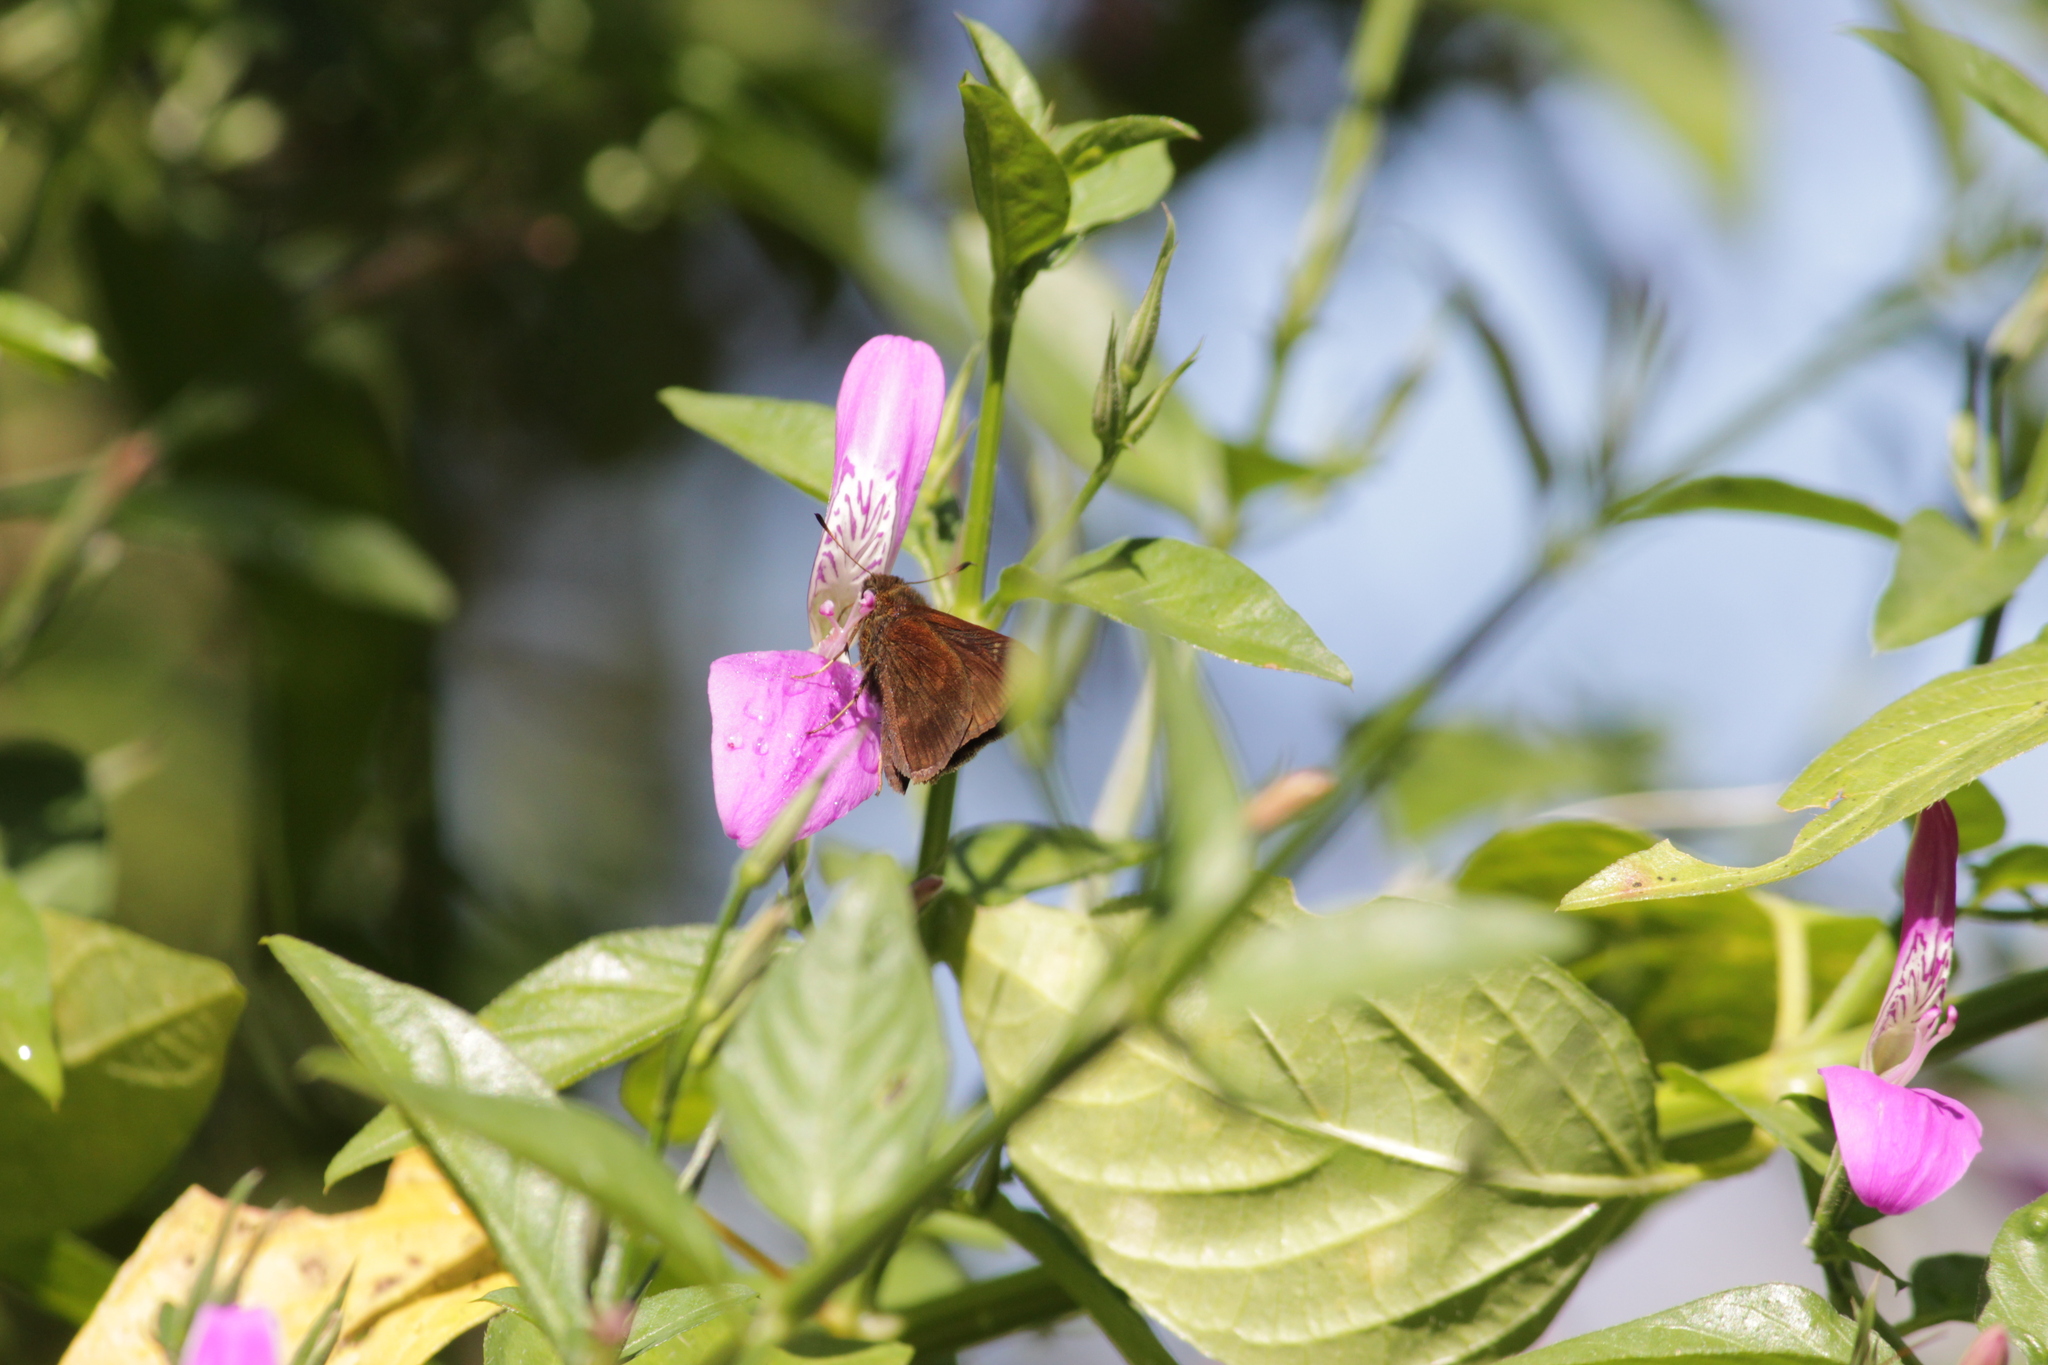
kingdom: Animalia
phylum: Arthropoda
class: Insecta
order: Lepidoptera
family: Hesperiidae
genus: Borbo
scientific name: Borbo lugens
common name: Lesser-horned swift
